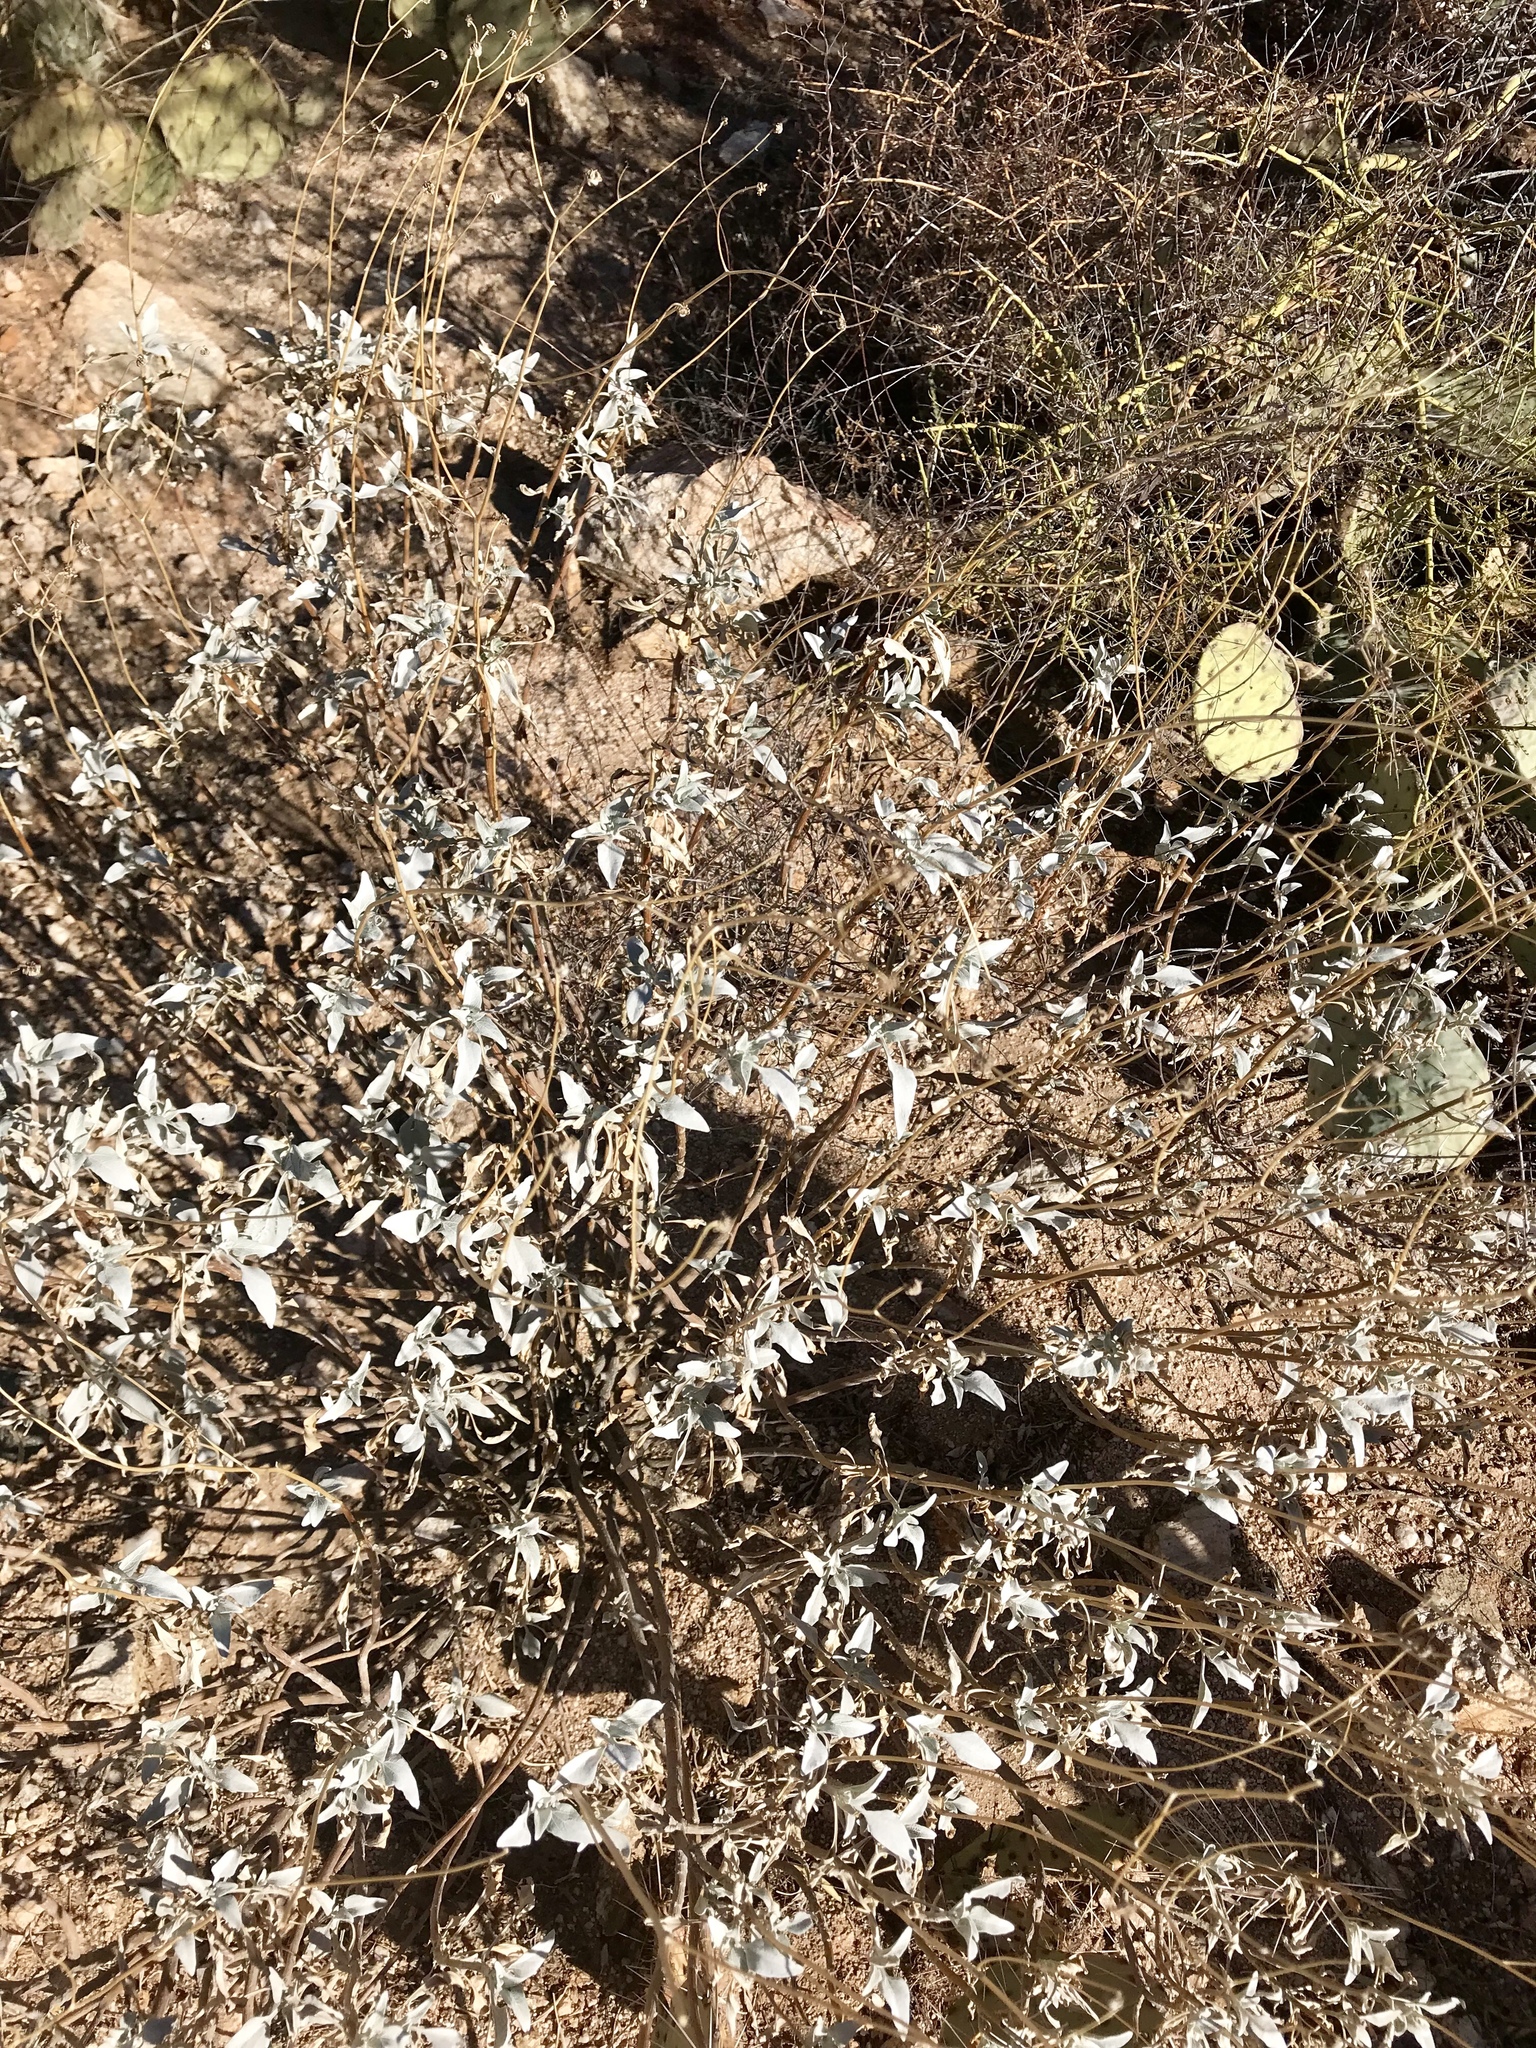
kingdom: Plantae
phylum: Tracheophyta
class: Magnoliopsida
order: Asterales
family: Asteraceae
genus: Encelia
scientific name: Encelia farinosa
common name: Brittlebush
